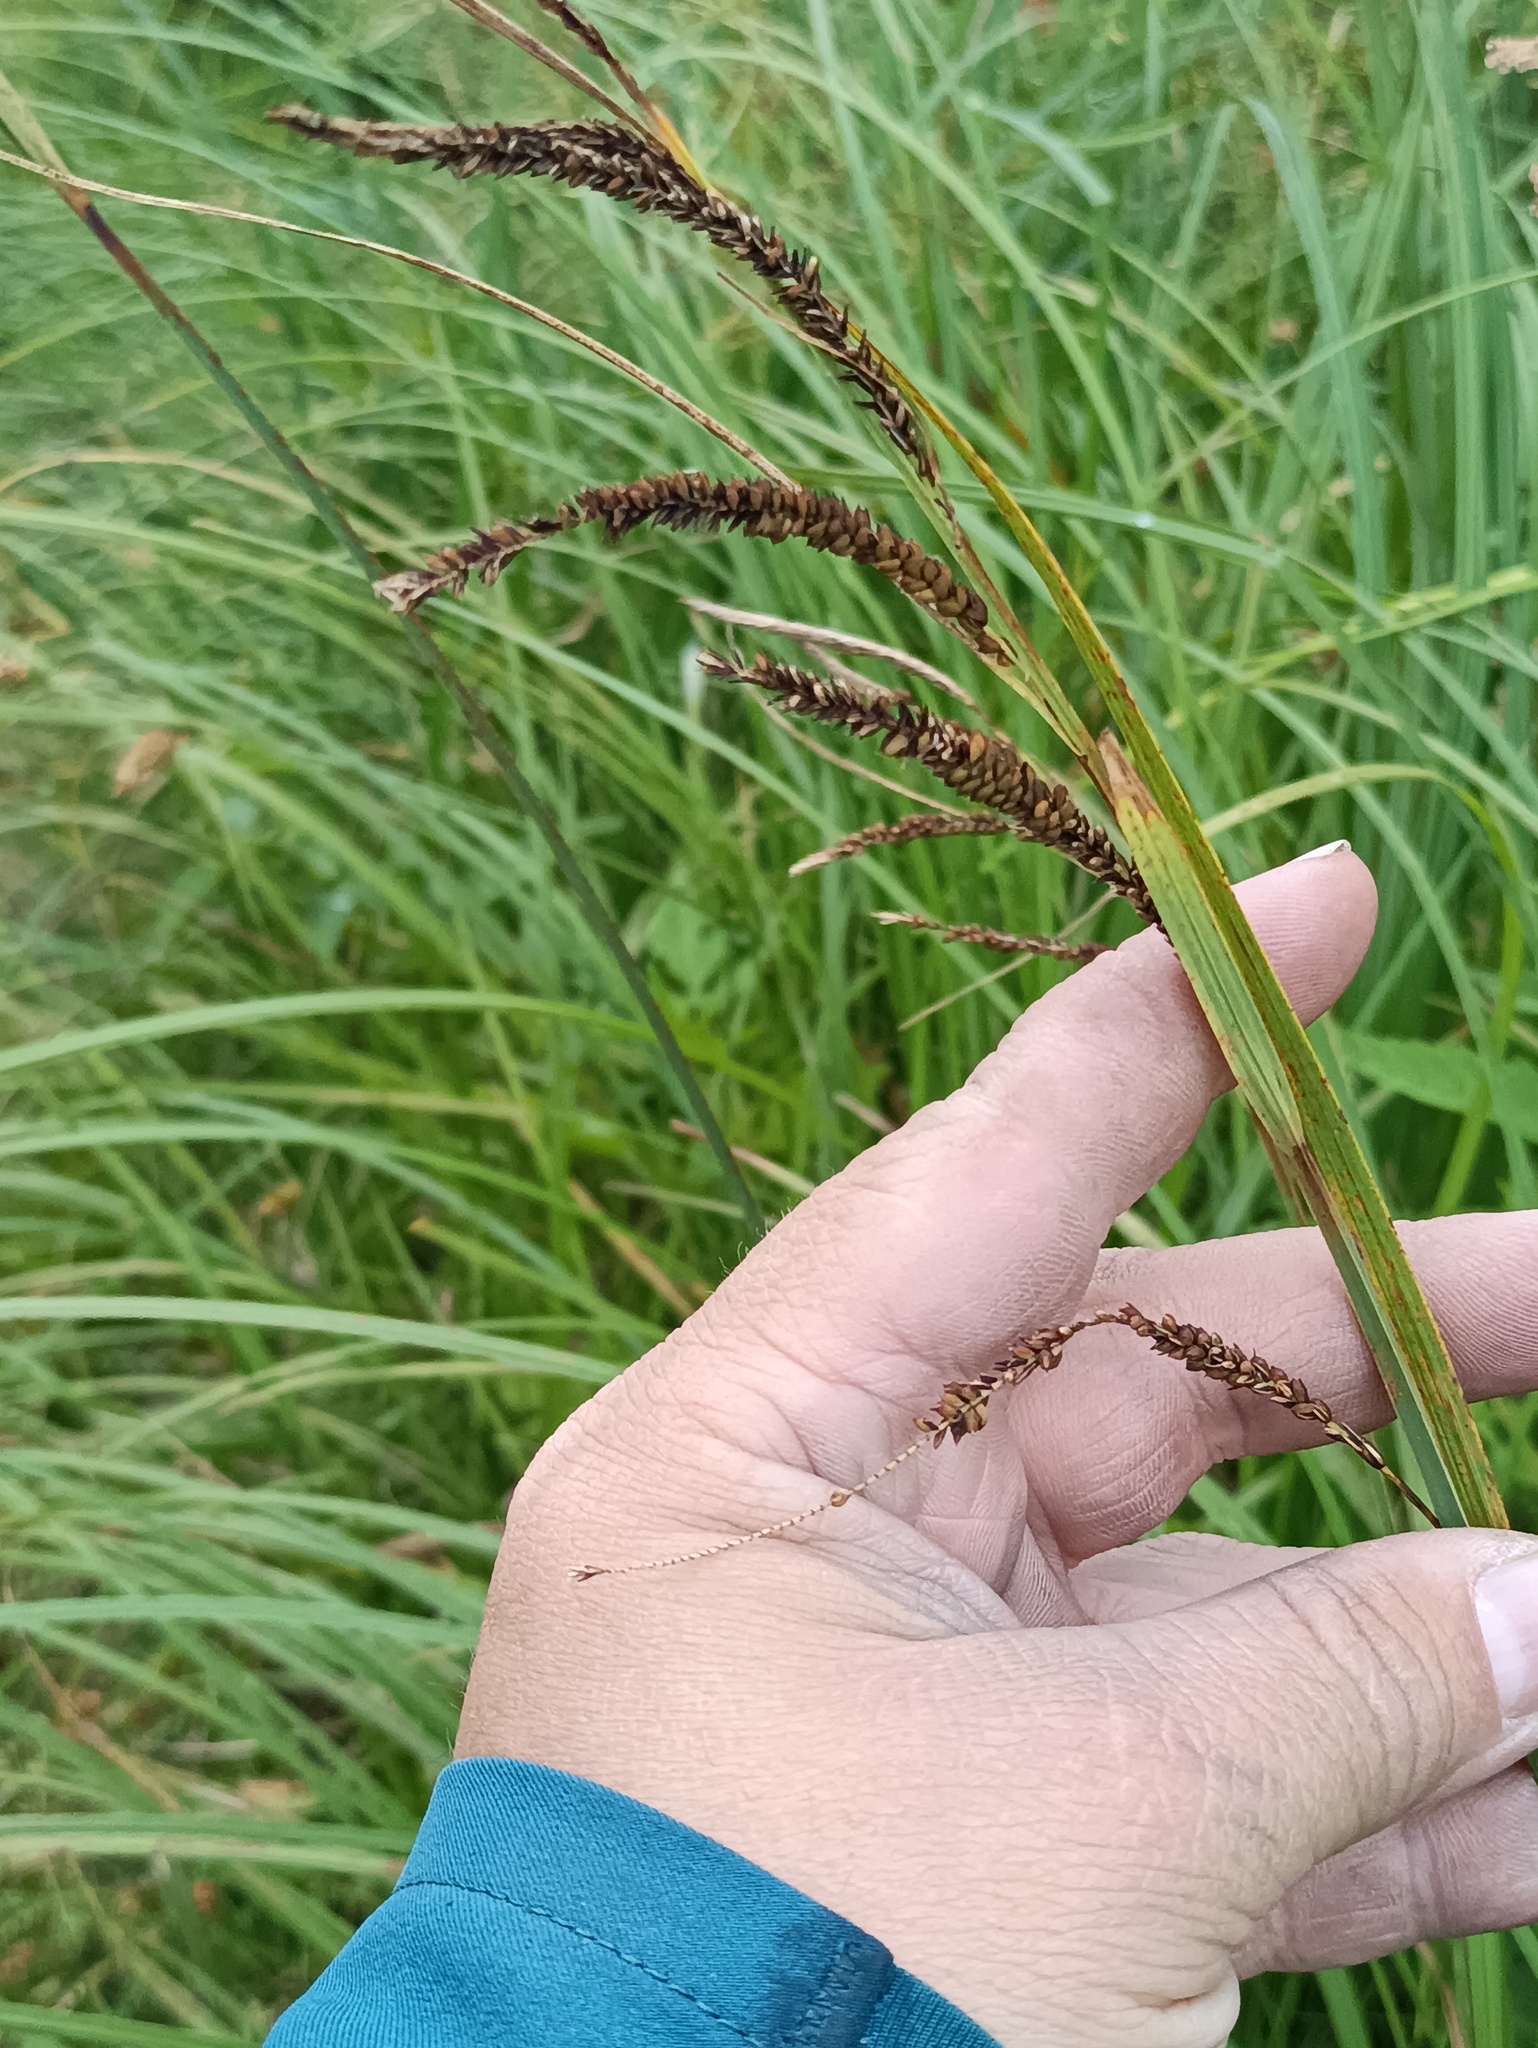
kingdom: Plantae
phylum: Tracheophyta
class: Liliopsida
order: Poales
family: Cyperaceae
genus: Carex
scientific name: Carex acuta
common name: Slender tufted-sedge
